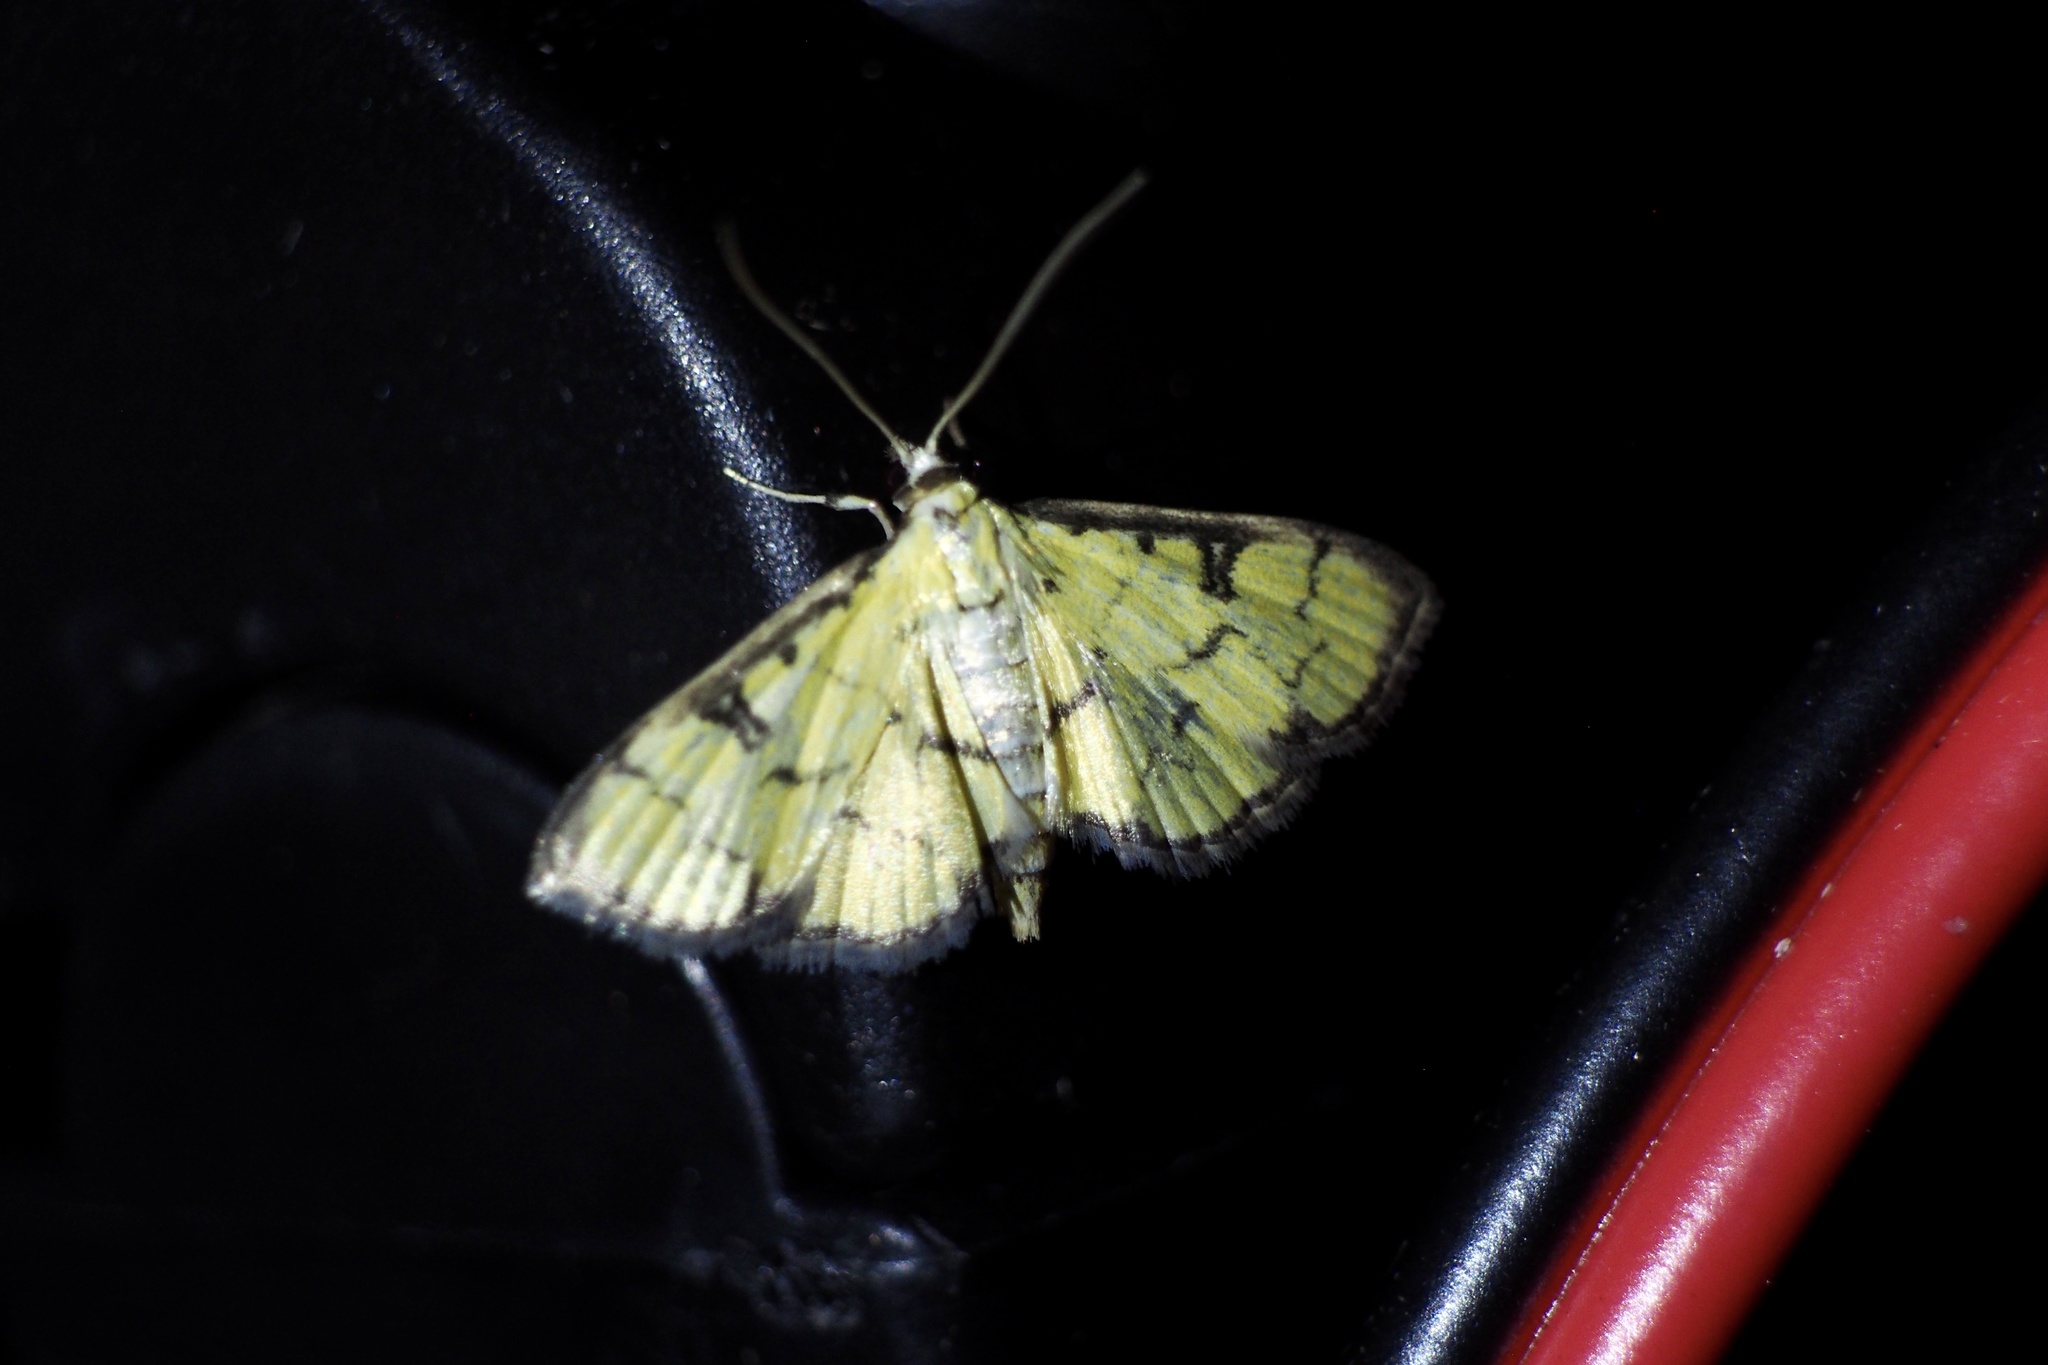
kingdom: Animalia
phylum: Arthropoda
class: Insecta
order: Lepidoptera
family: Crambidae
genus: Goniorhynchus
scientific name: Goniorhynchus butyrosa
